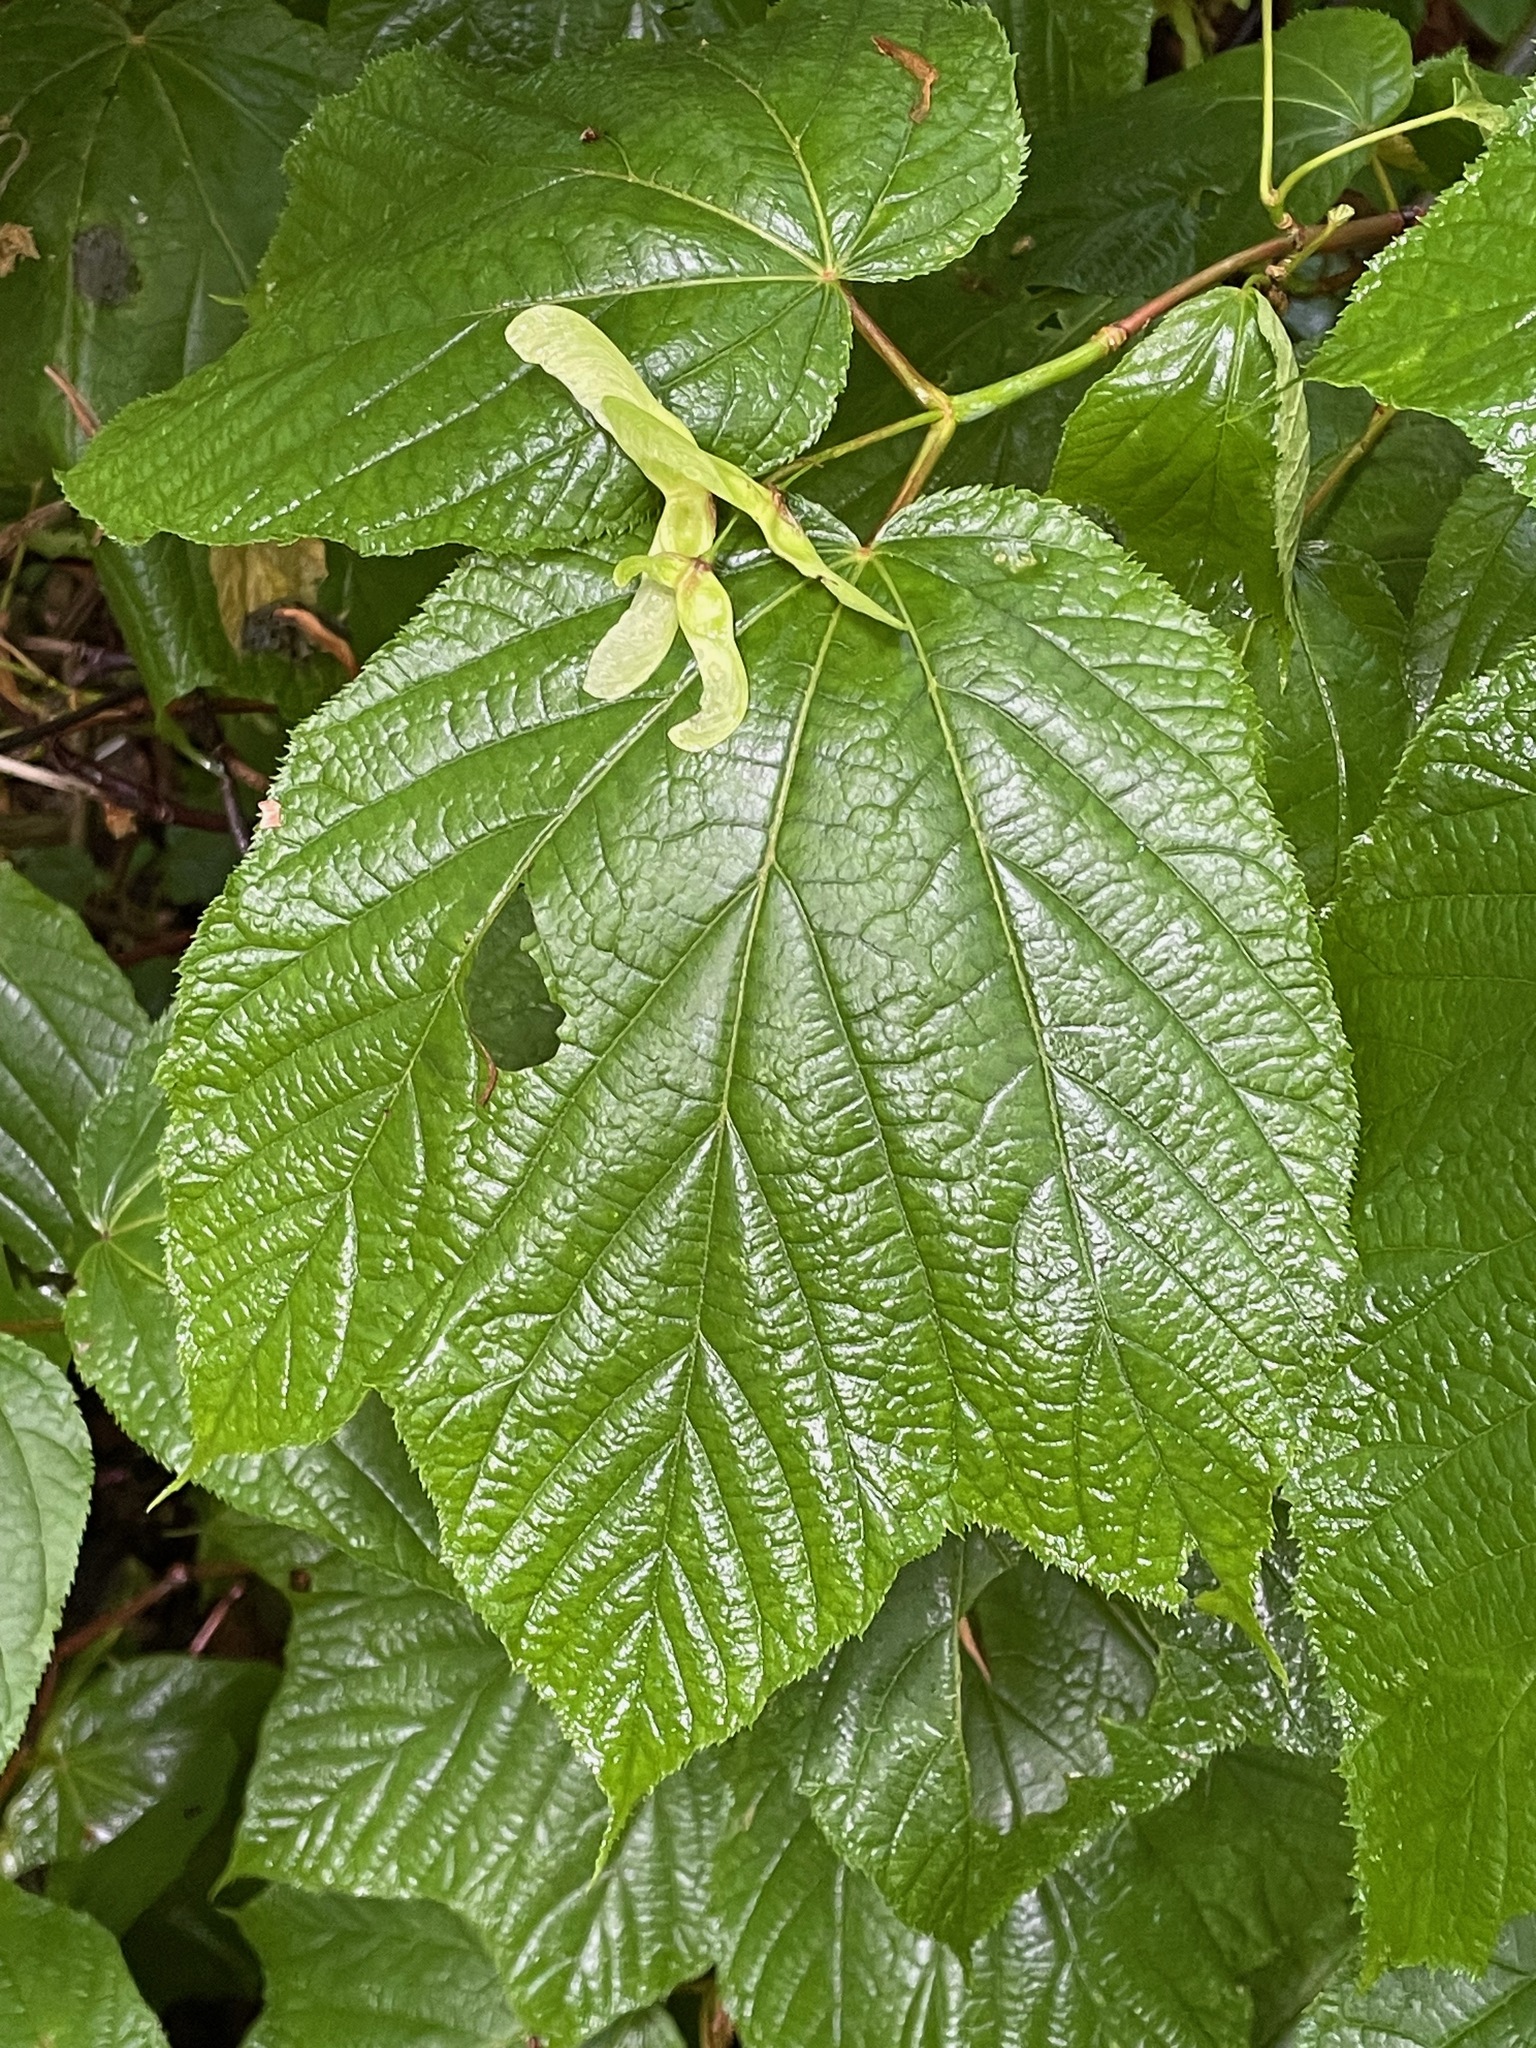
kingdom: Plantae
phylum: Tracheophyta
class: Magnoliopsida
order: Sapindales
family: Sapindaceae
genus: Acer
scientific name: Acer pensylvanicum
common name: Moosewood
